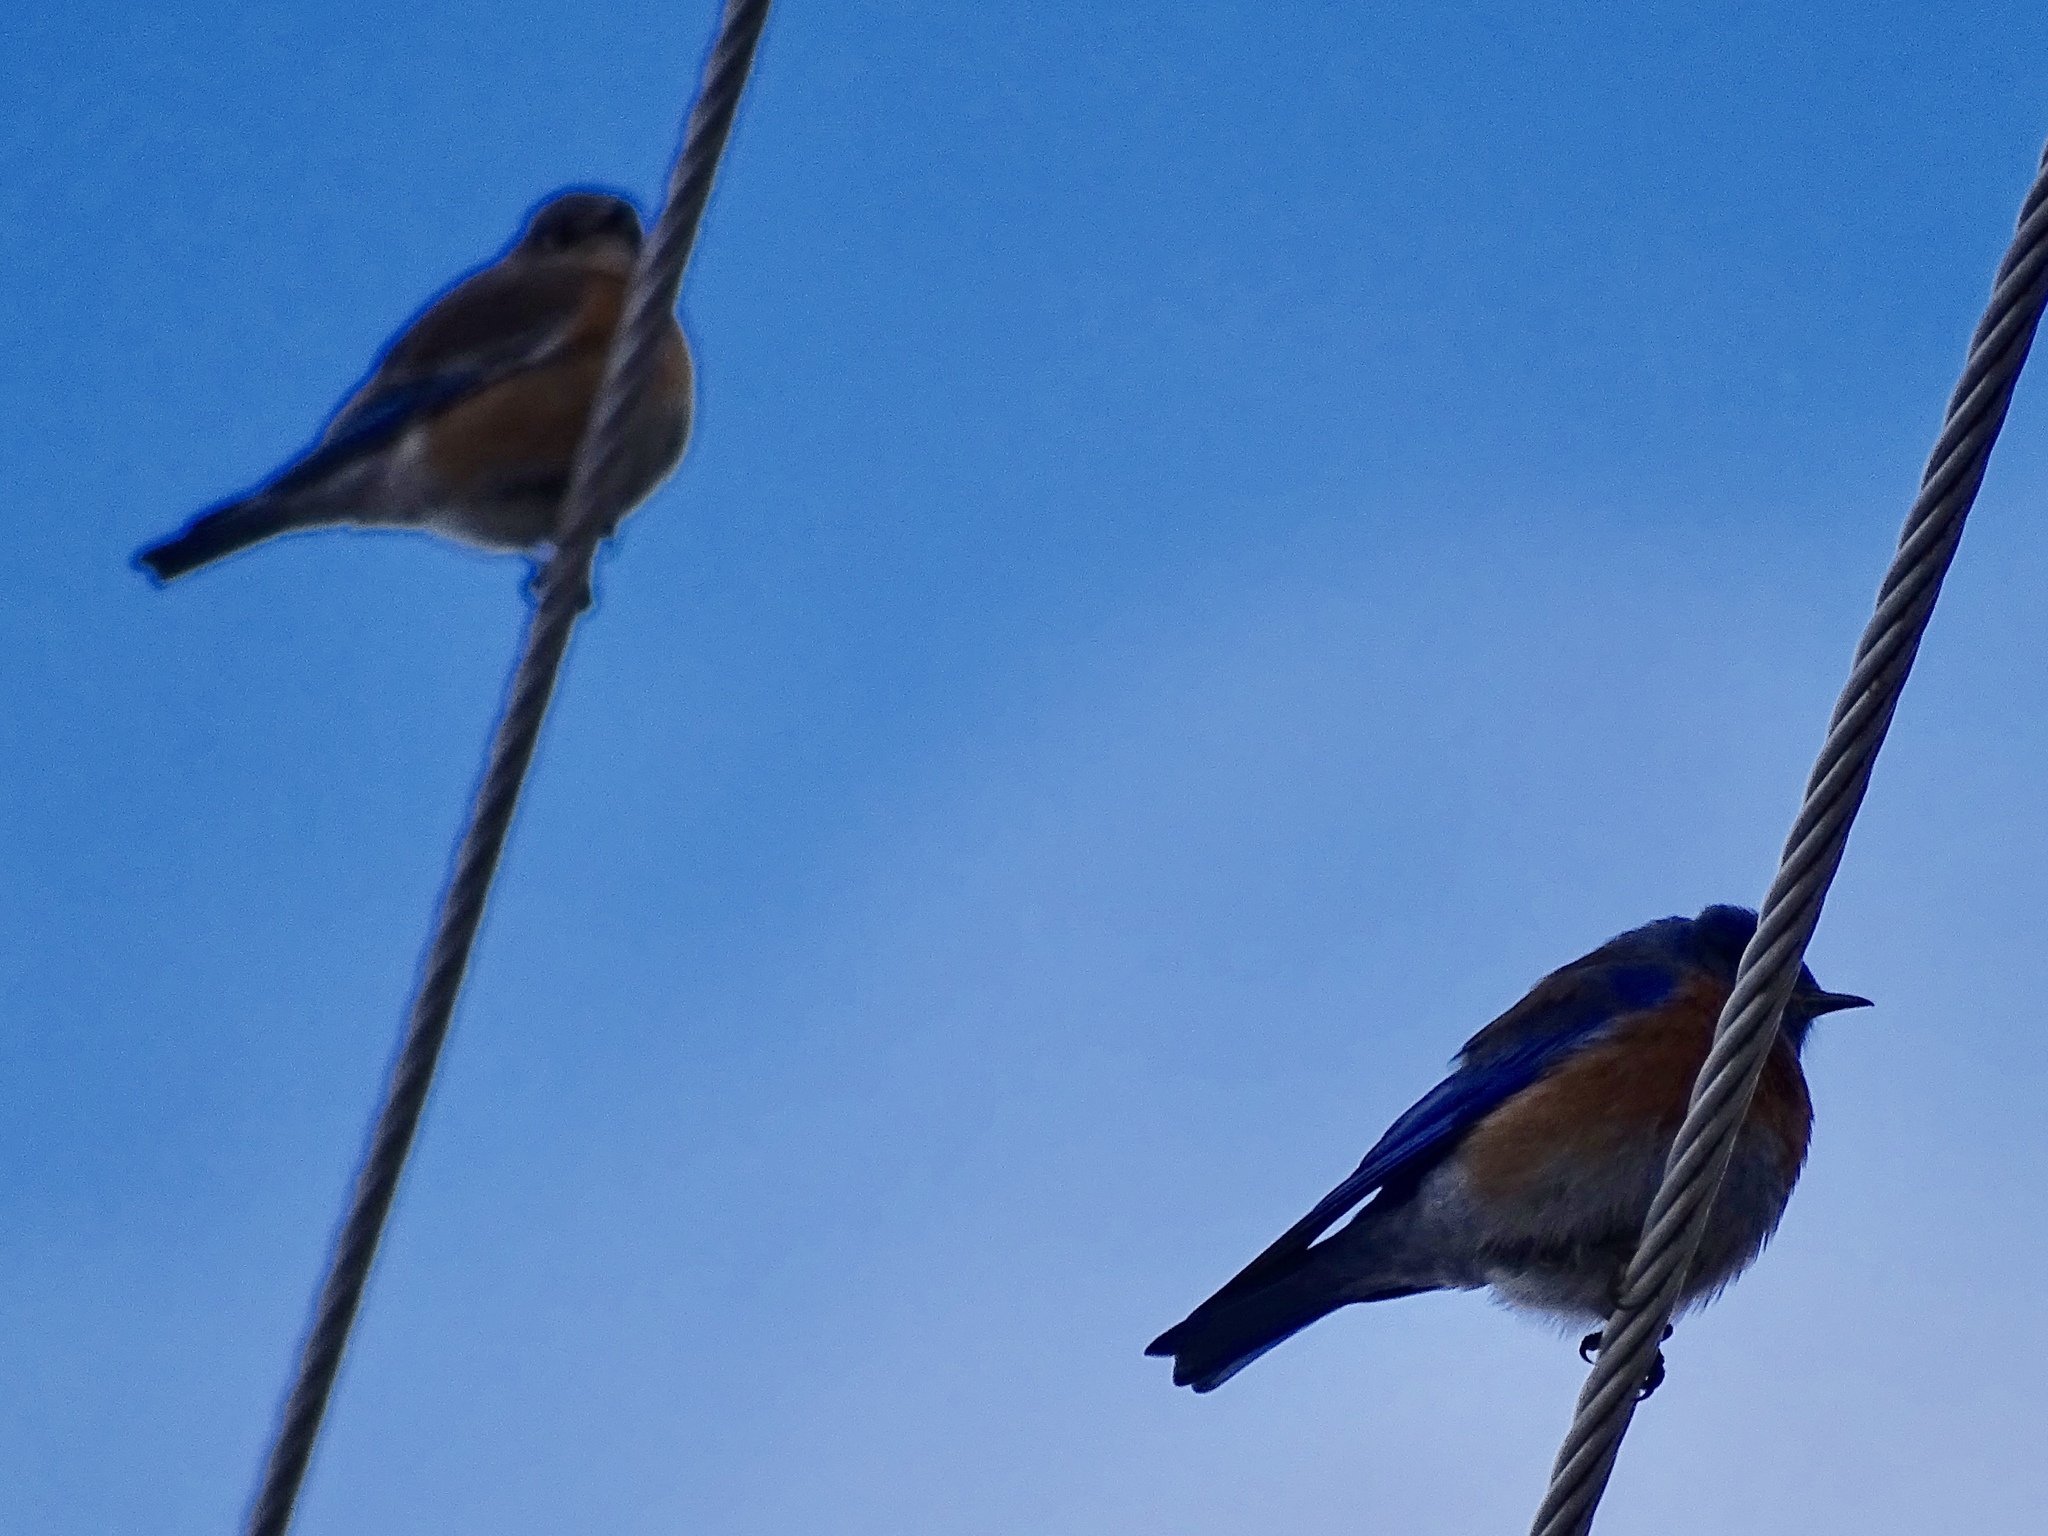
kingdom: Animalia
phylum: Chordata
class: Aves
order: Passeriformes
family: Turdidae
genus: Sialia
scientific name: Sialia mexicana
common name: Western bluebird
